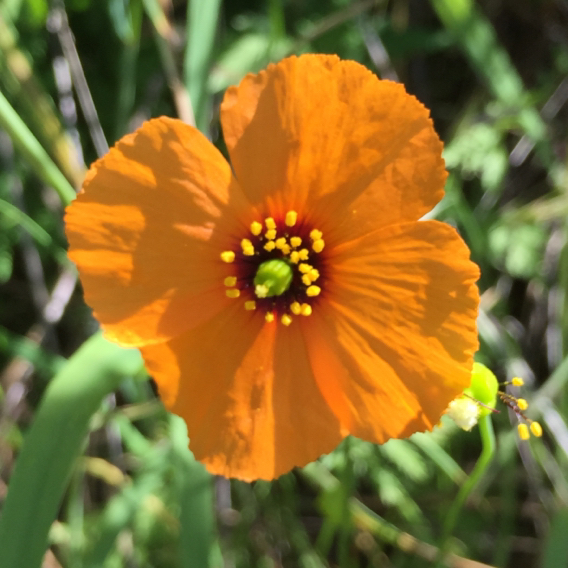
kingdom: Plantae
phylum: Tracheophyta
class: Magnoliopsida
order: Ranunculales
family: Papaveraceae
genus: Stylomecon
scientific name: Stylomecon heterophylla
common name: Flaming-poppy
